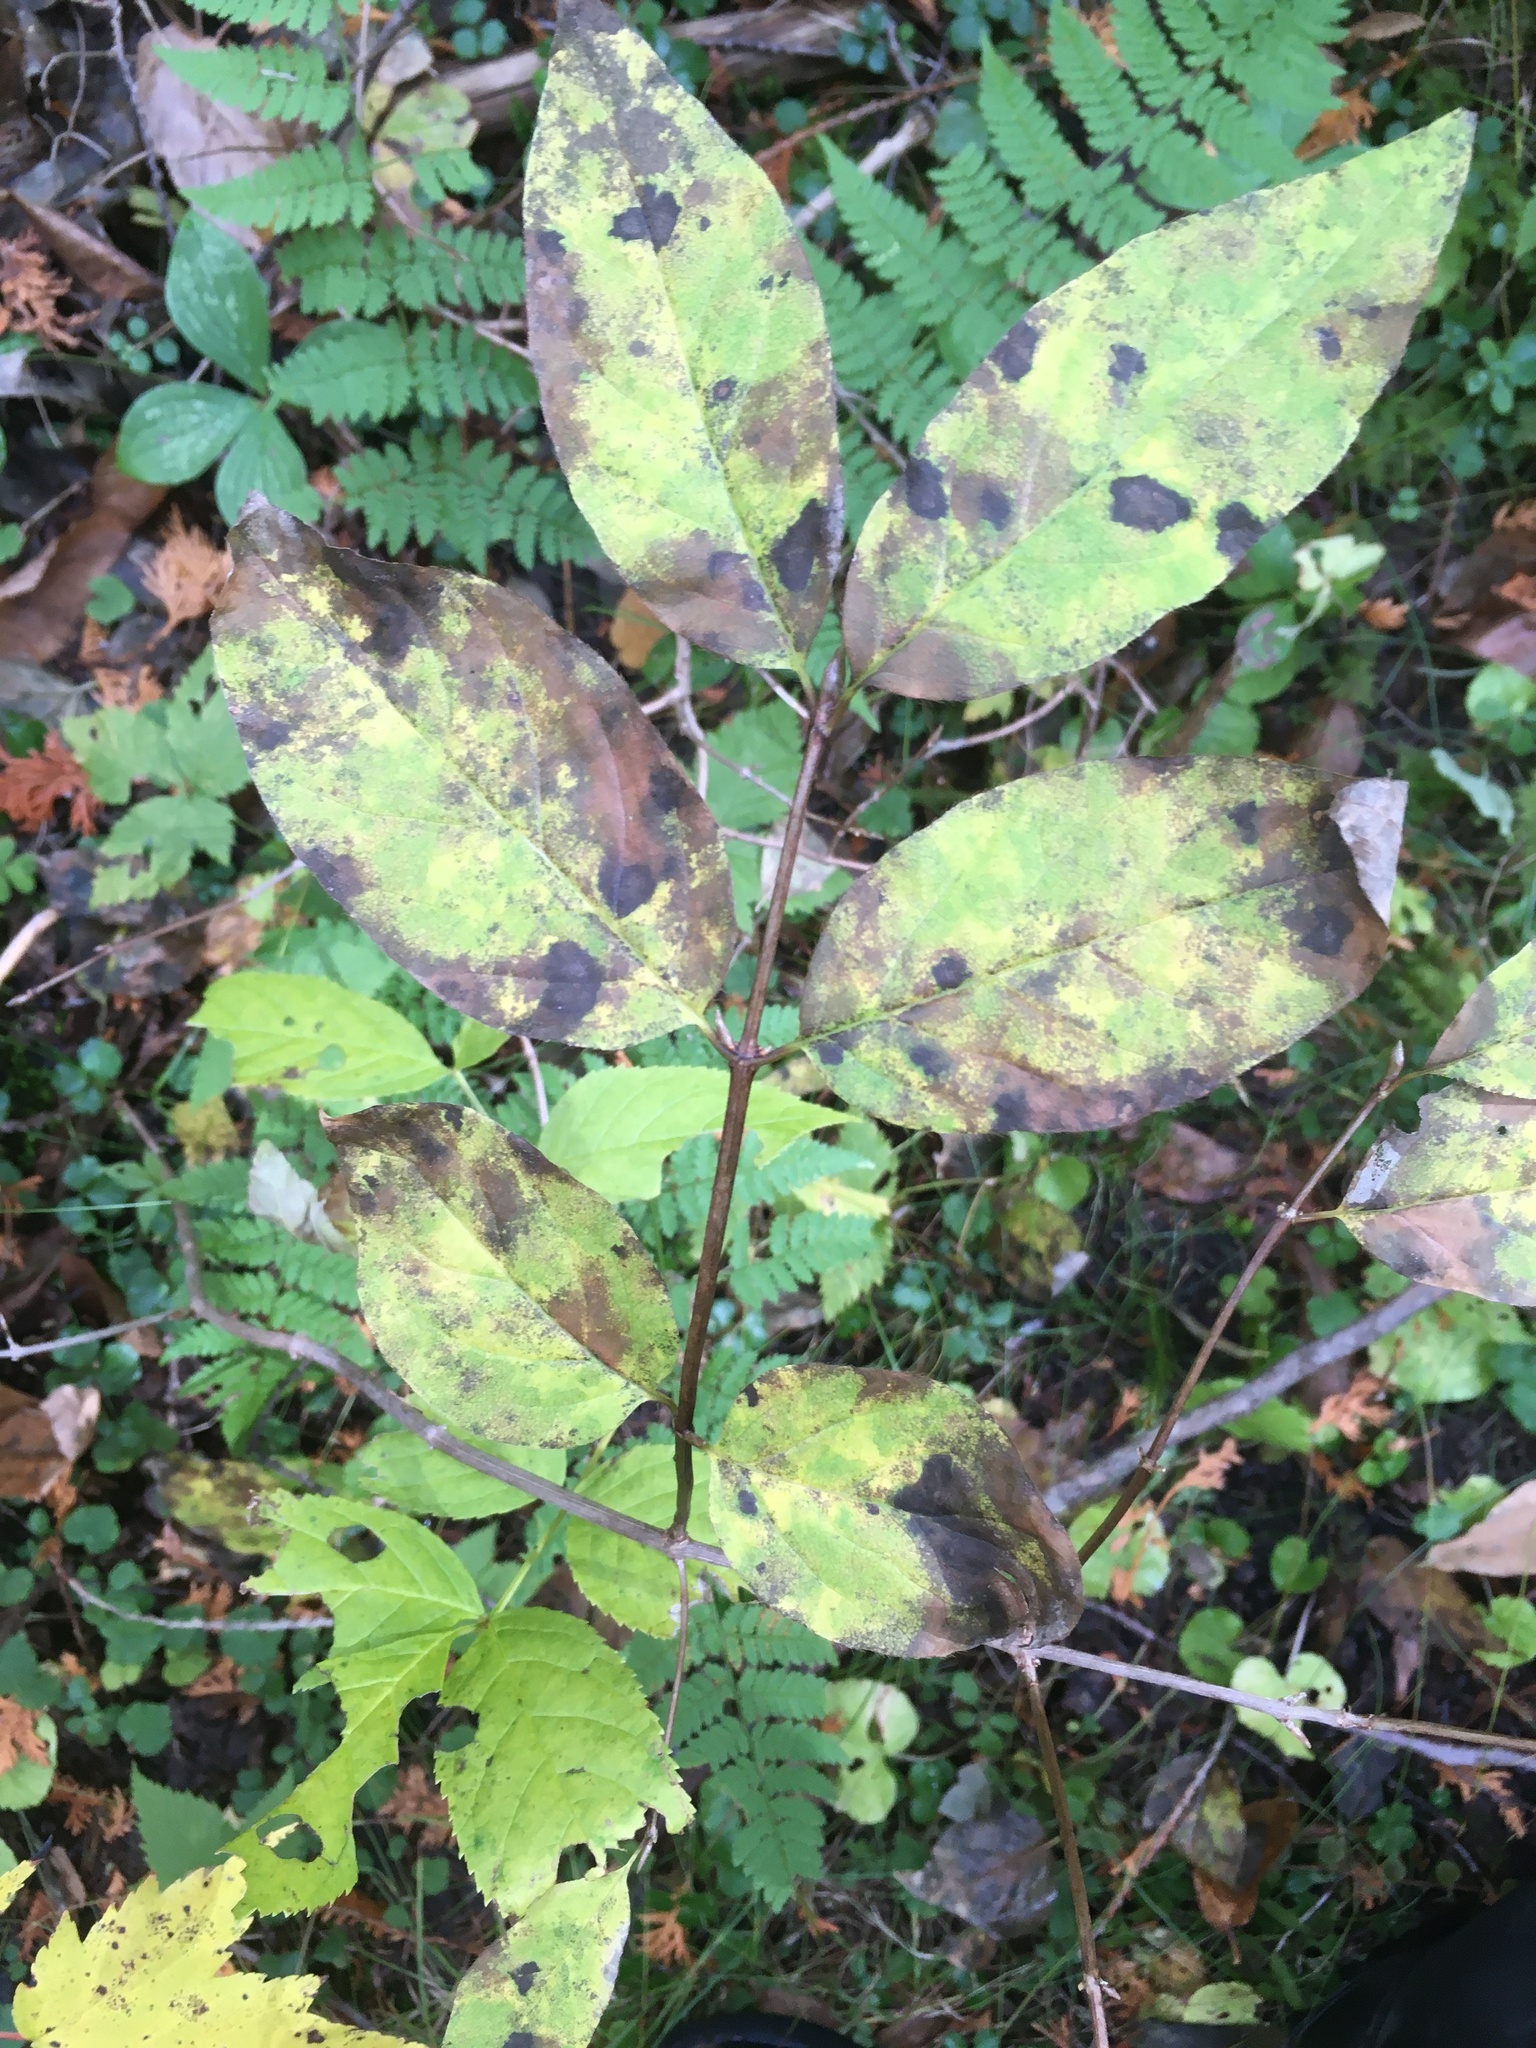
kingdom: Plantae
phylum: Tracheophyta
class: Magnoliopsida
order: Dipsacales
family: Caprifoliaceae
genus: Lonicera
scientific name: Lonicera canadensis
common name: American fly-honeysuckle
